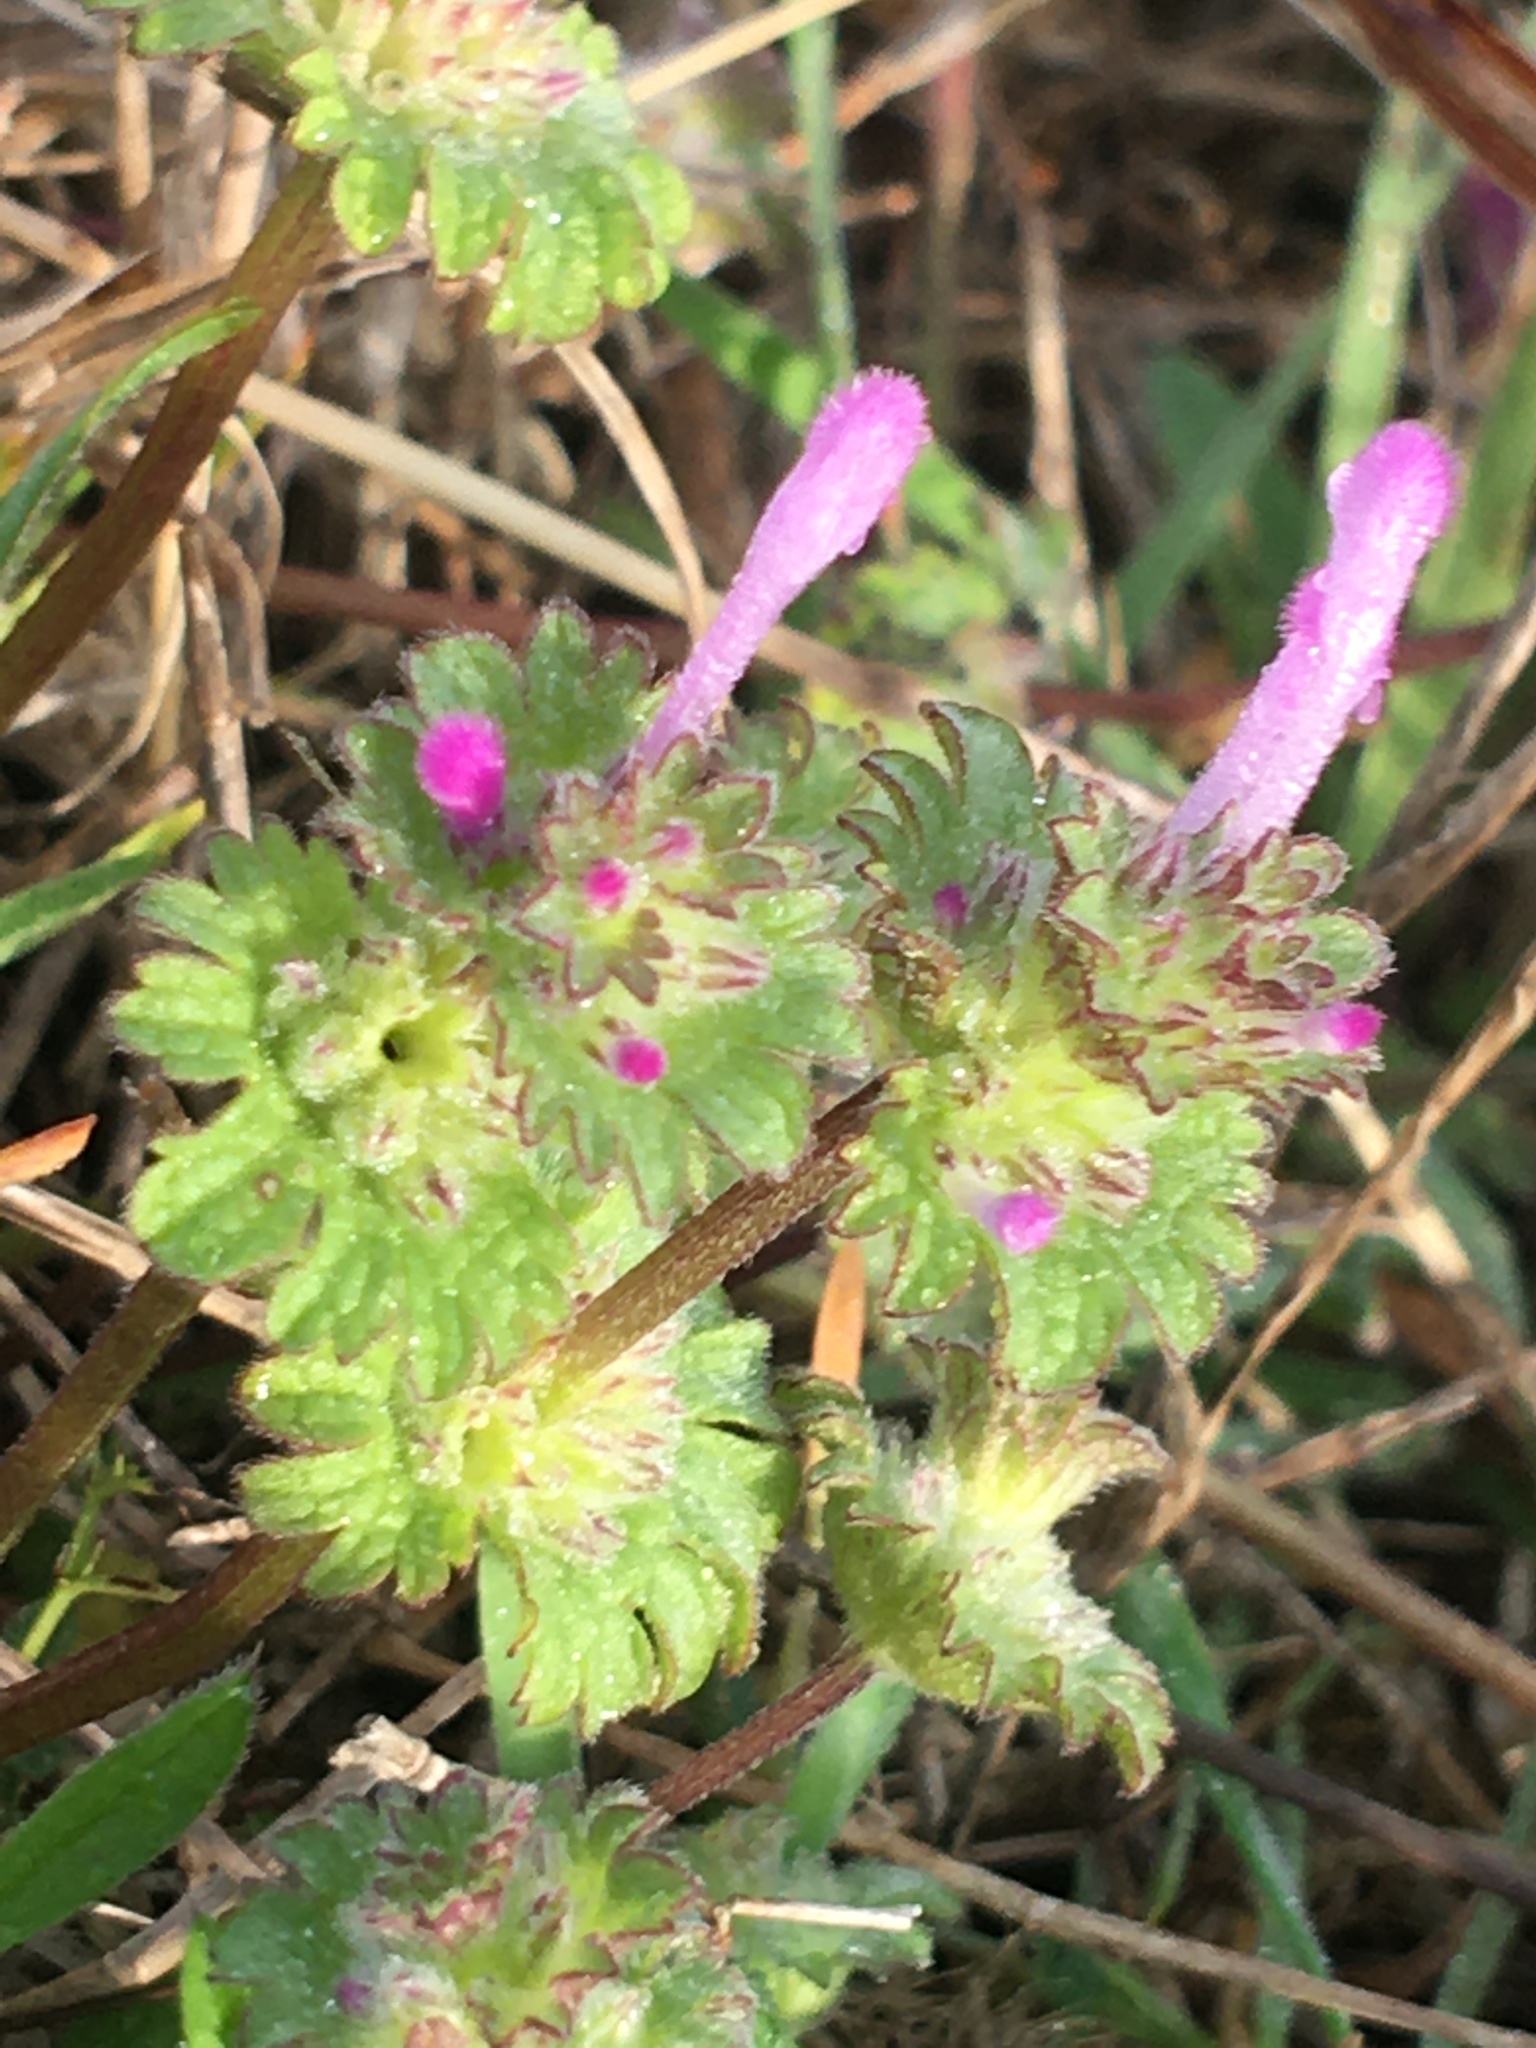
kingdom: Plantae
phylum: Tracheophyta
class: Magnoliopsida
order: Lamiales
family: Lamiaceae
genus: Lamium
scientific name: Lamium amplexicaule
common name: Henbit dead-nettle
